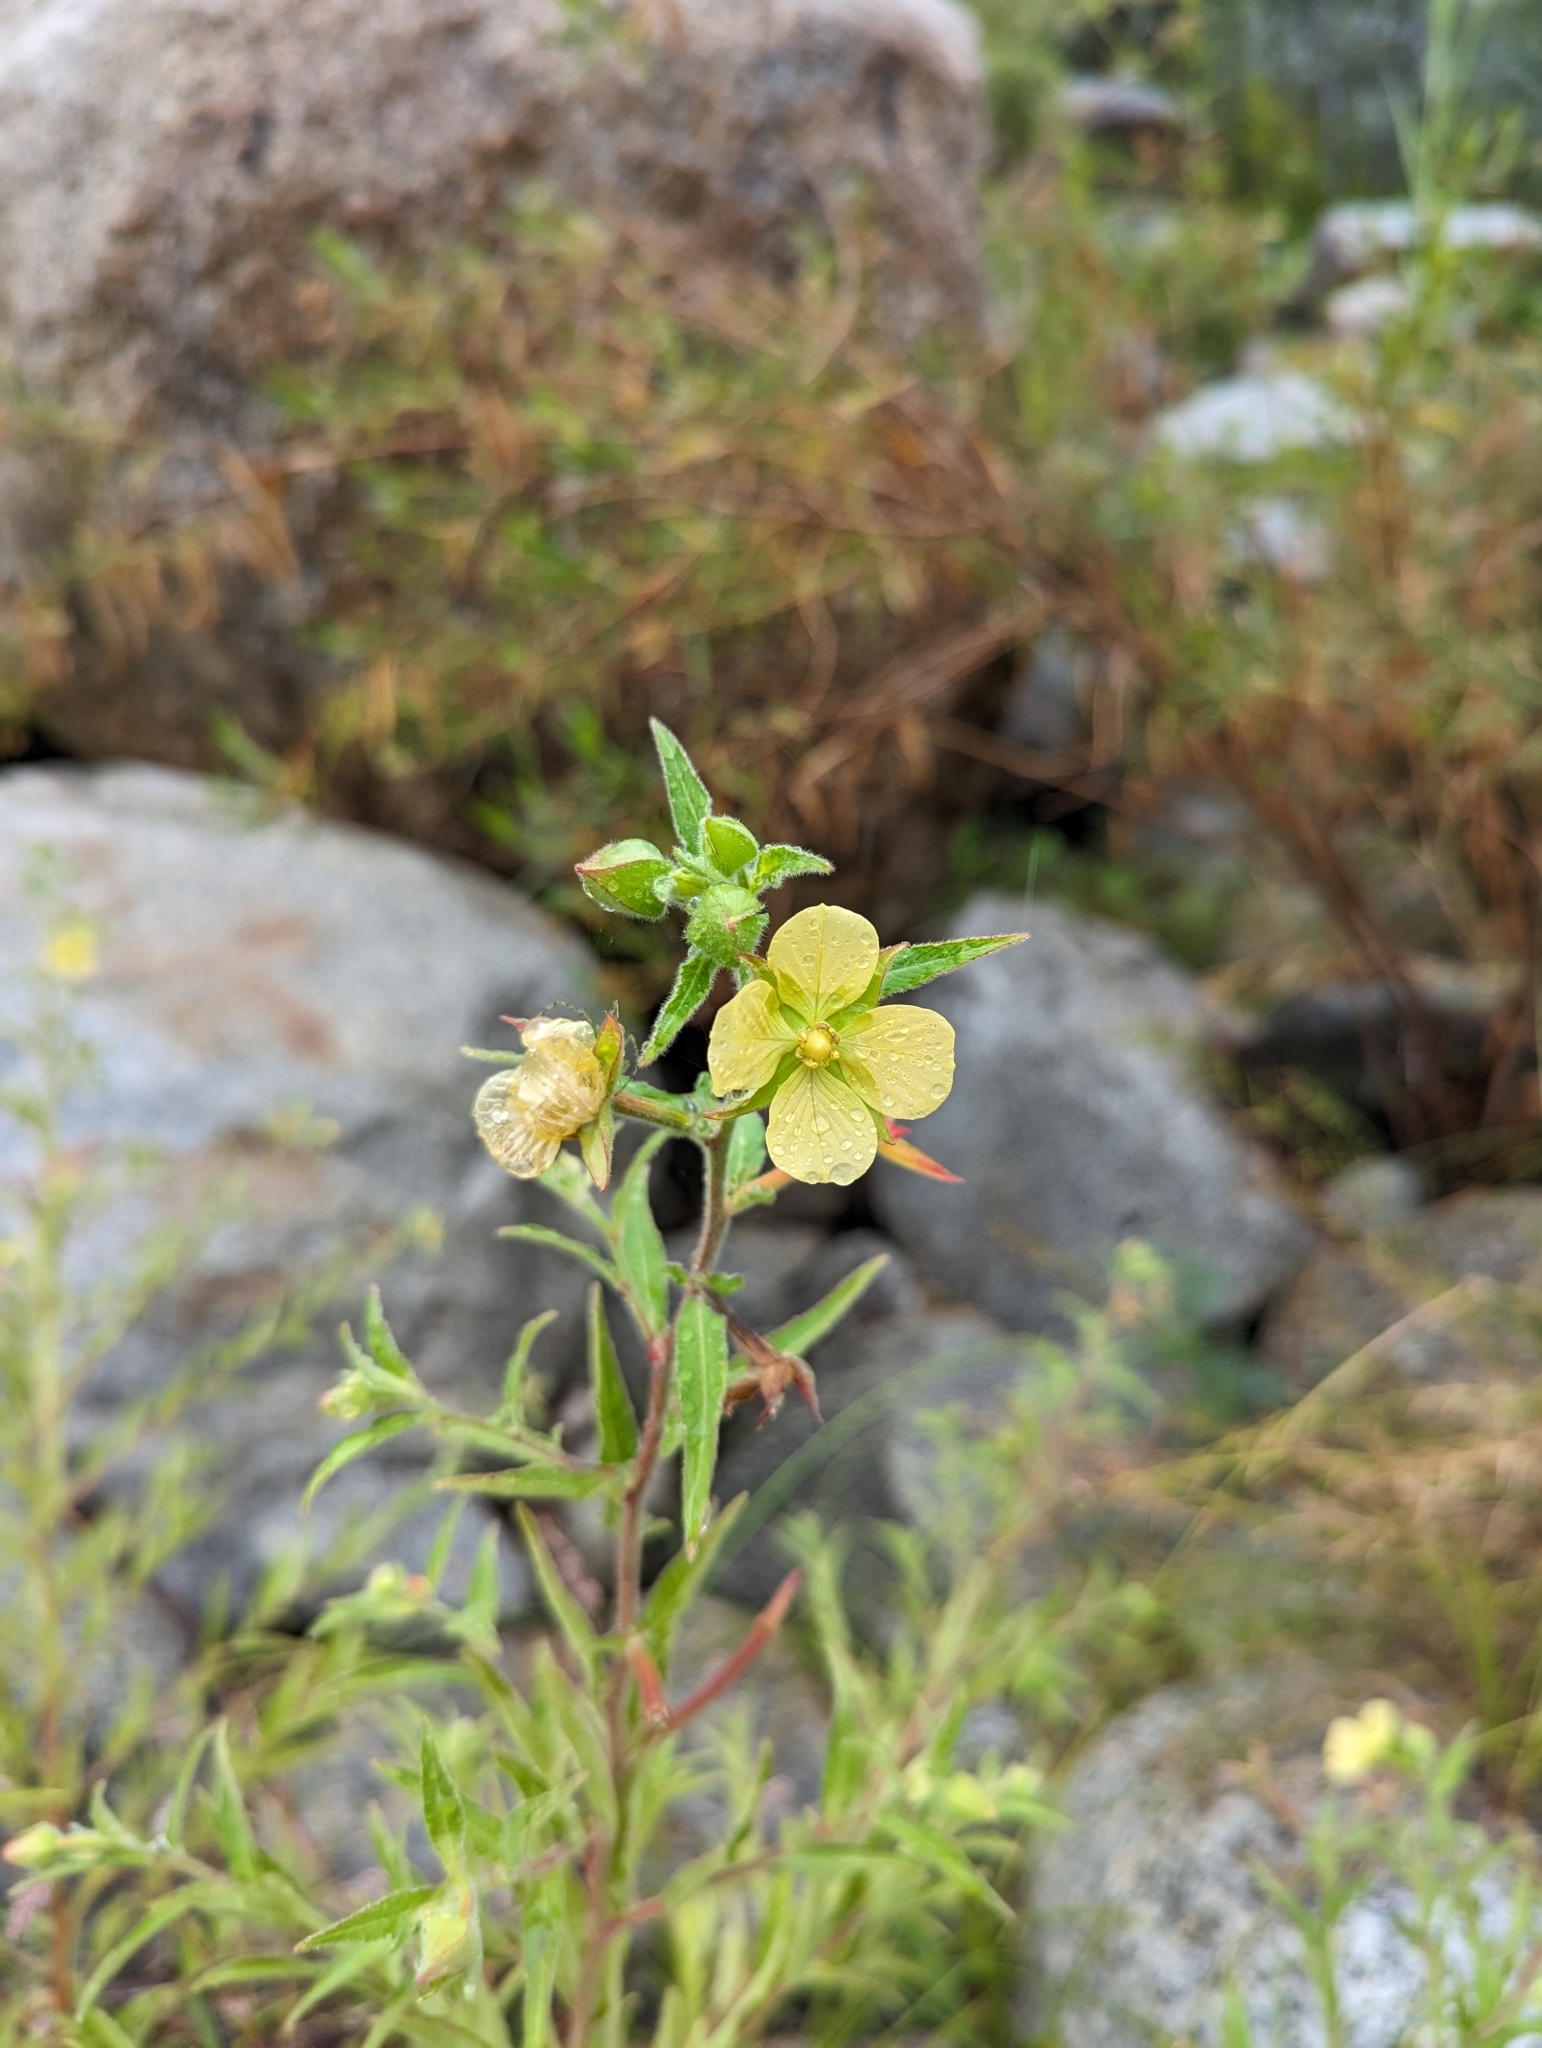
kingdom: Plantae
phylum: Tracheophyta
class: Magnoliopsida
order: Myrtales
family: Onagraceae
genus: Ludwigia
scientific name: Ludwigia octovalvis
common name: Water-primrose
